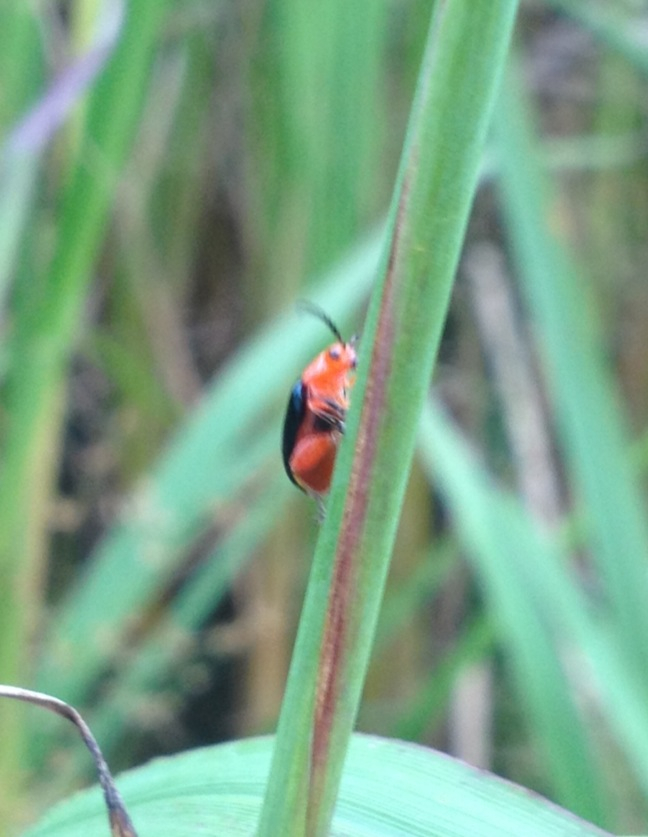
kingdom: Animalia
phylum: Arthropoda
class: Insecta
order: Coleoptera
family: Chrysomelidae
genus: Asphaera
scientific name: Asphaera lustrans
